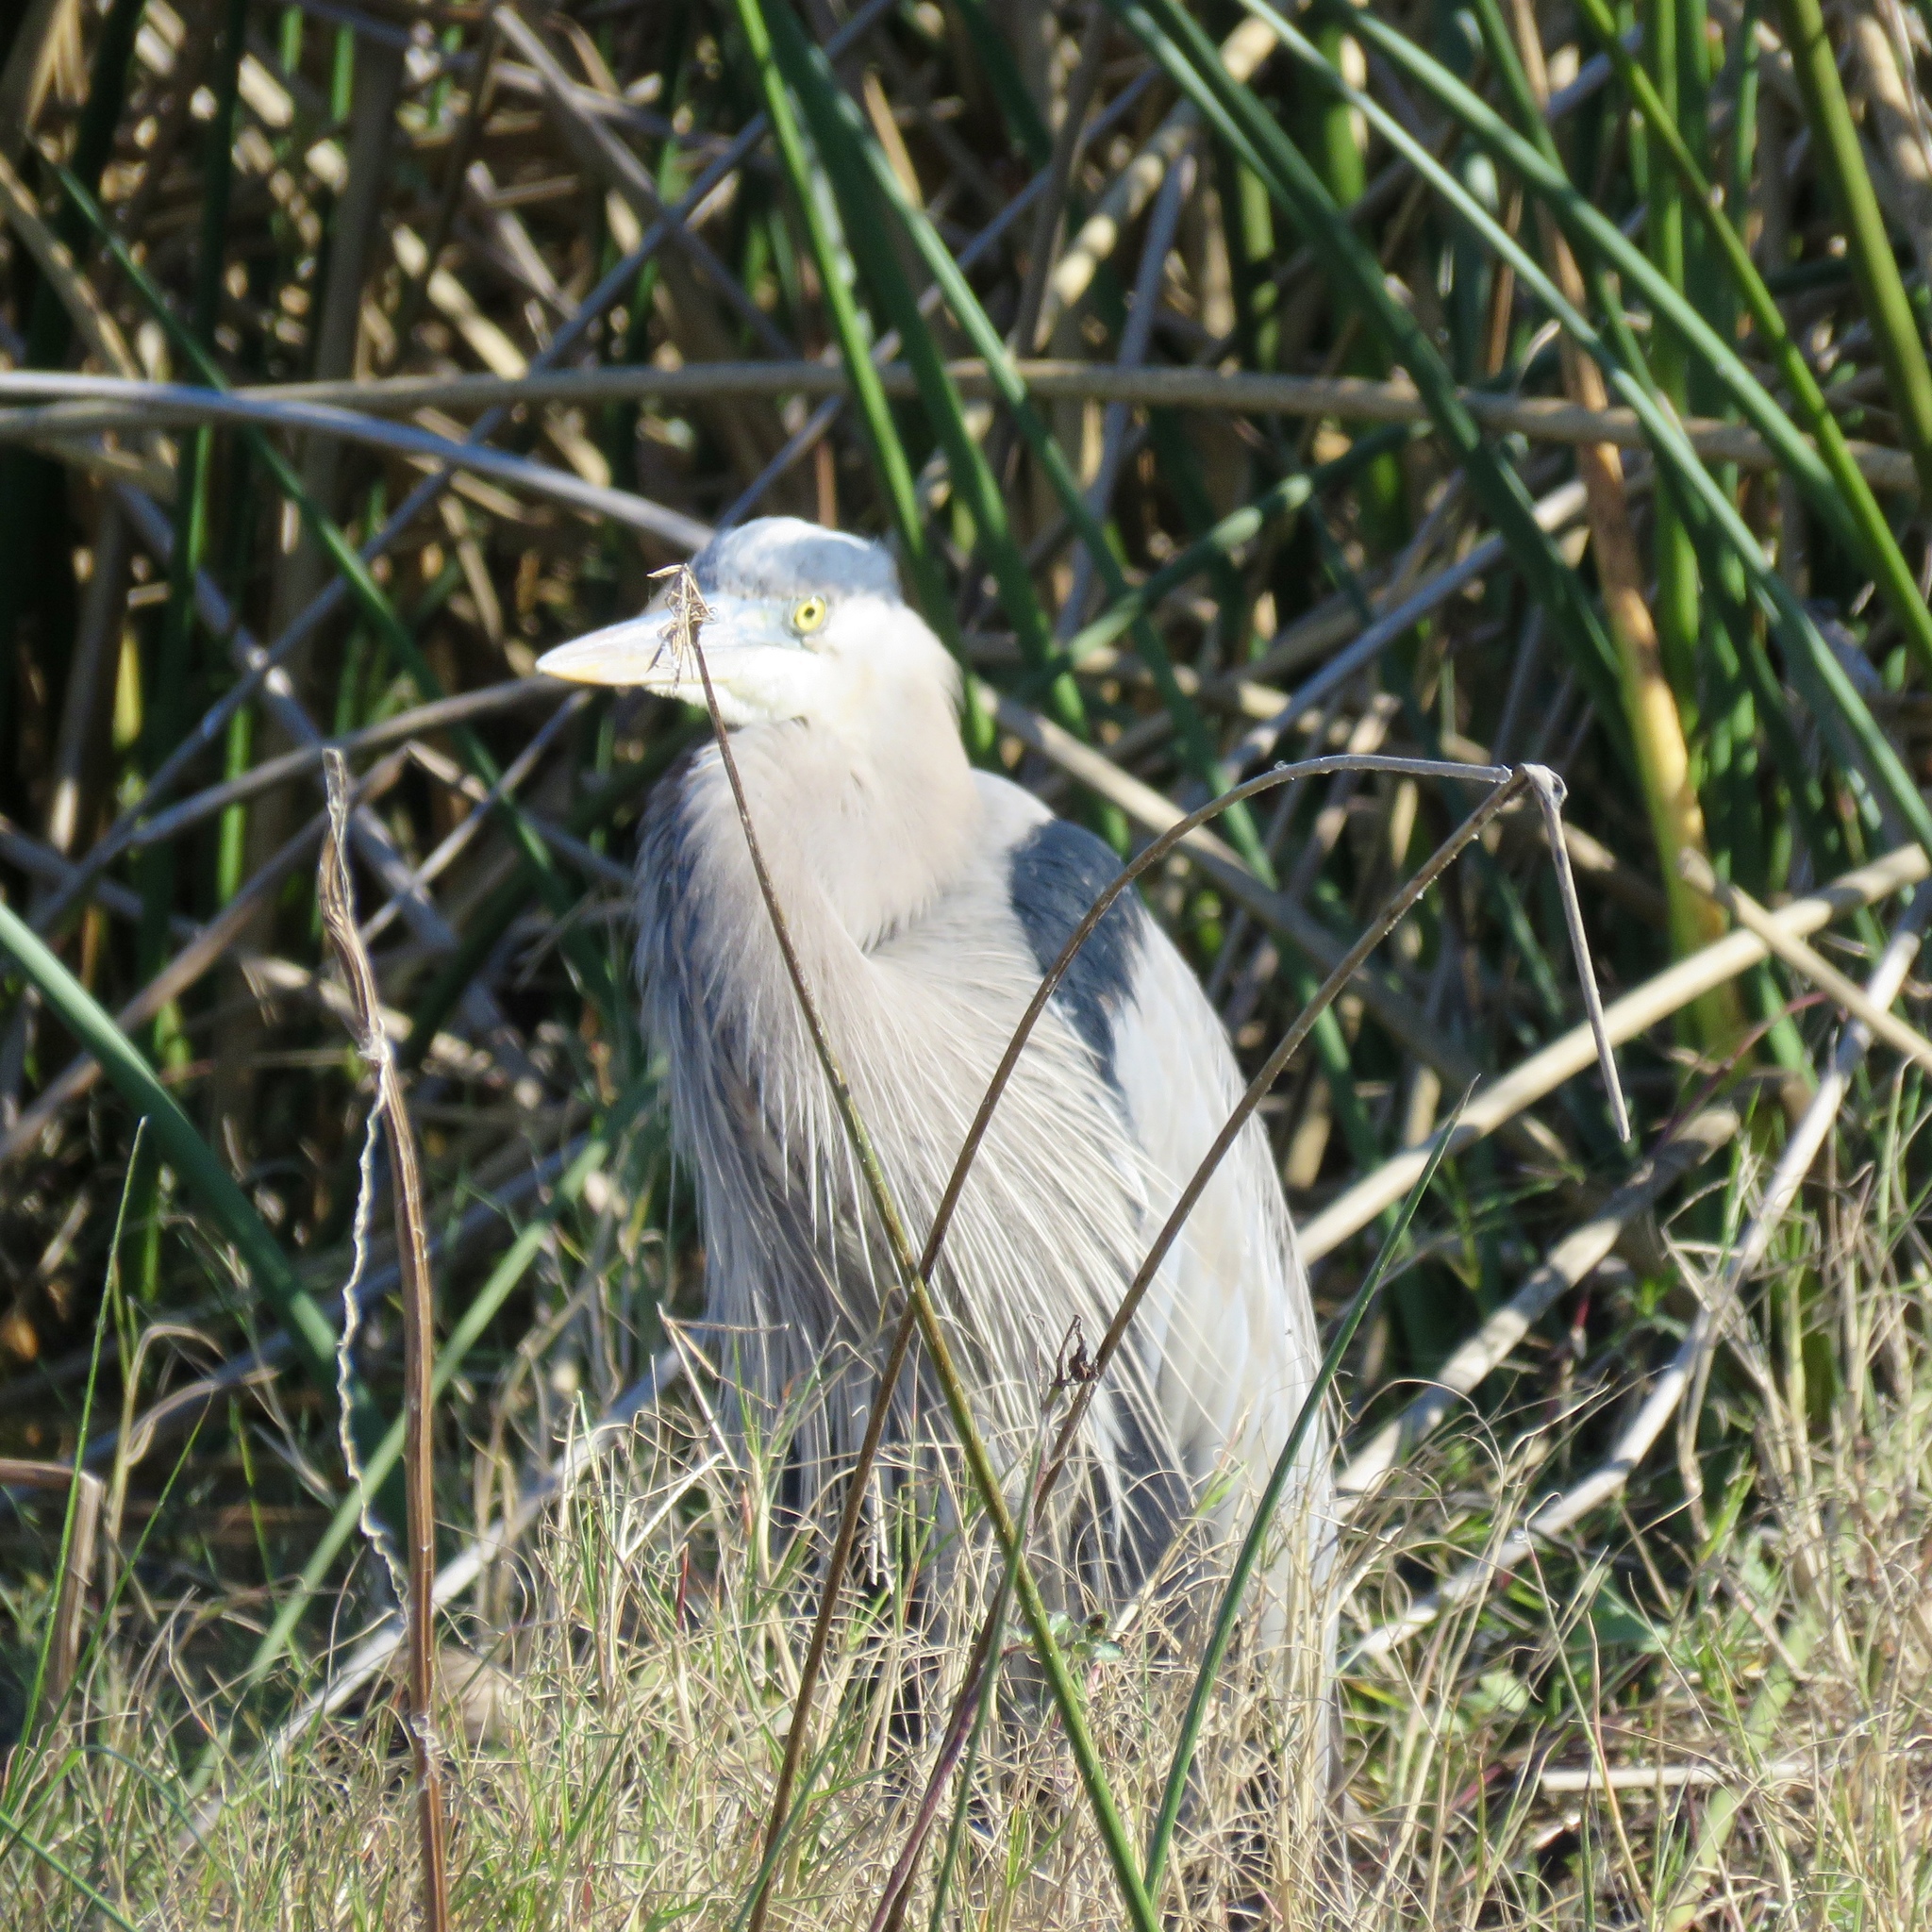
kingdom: Animalia
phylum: Chordata
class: Aves
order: Pelecaniformes
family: Ardeidae
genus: Ardea
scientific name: Ardea herodias
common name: Great blue heron
